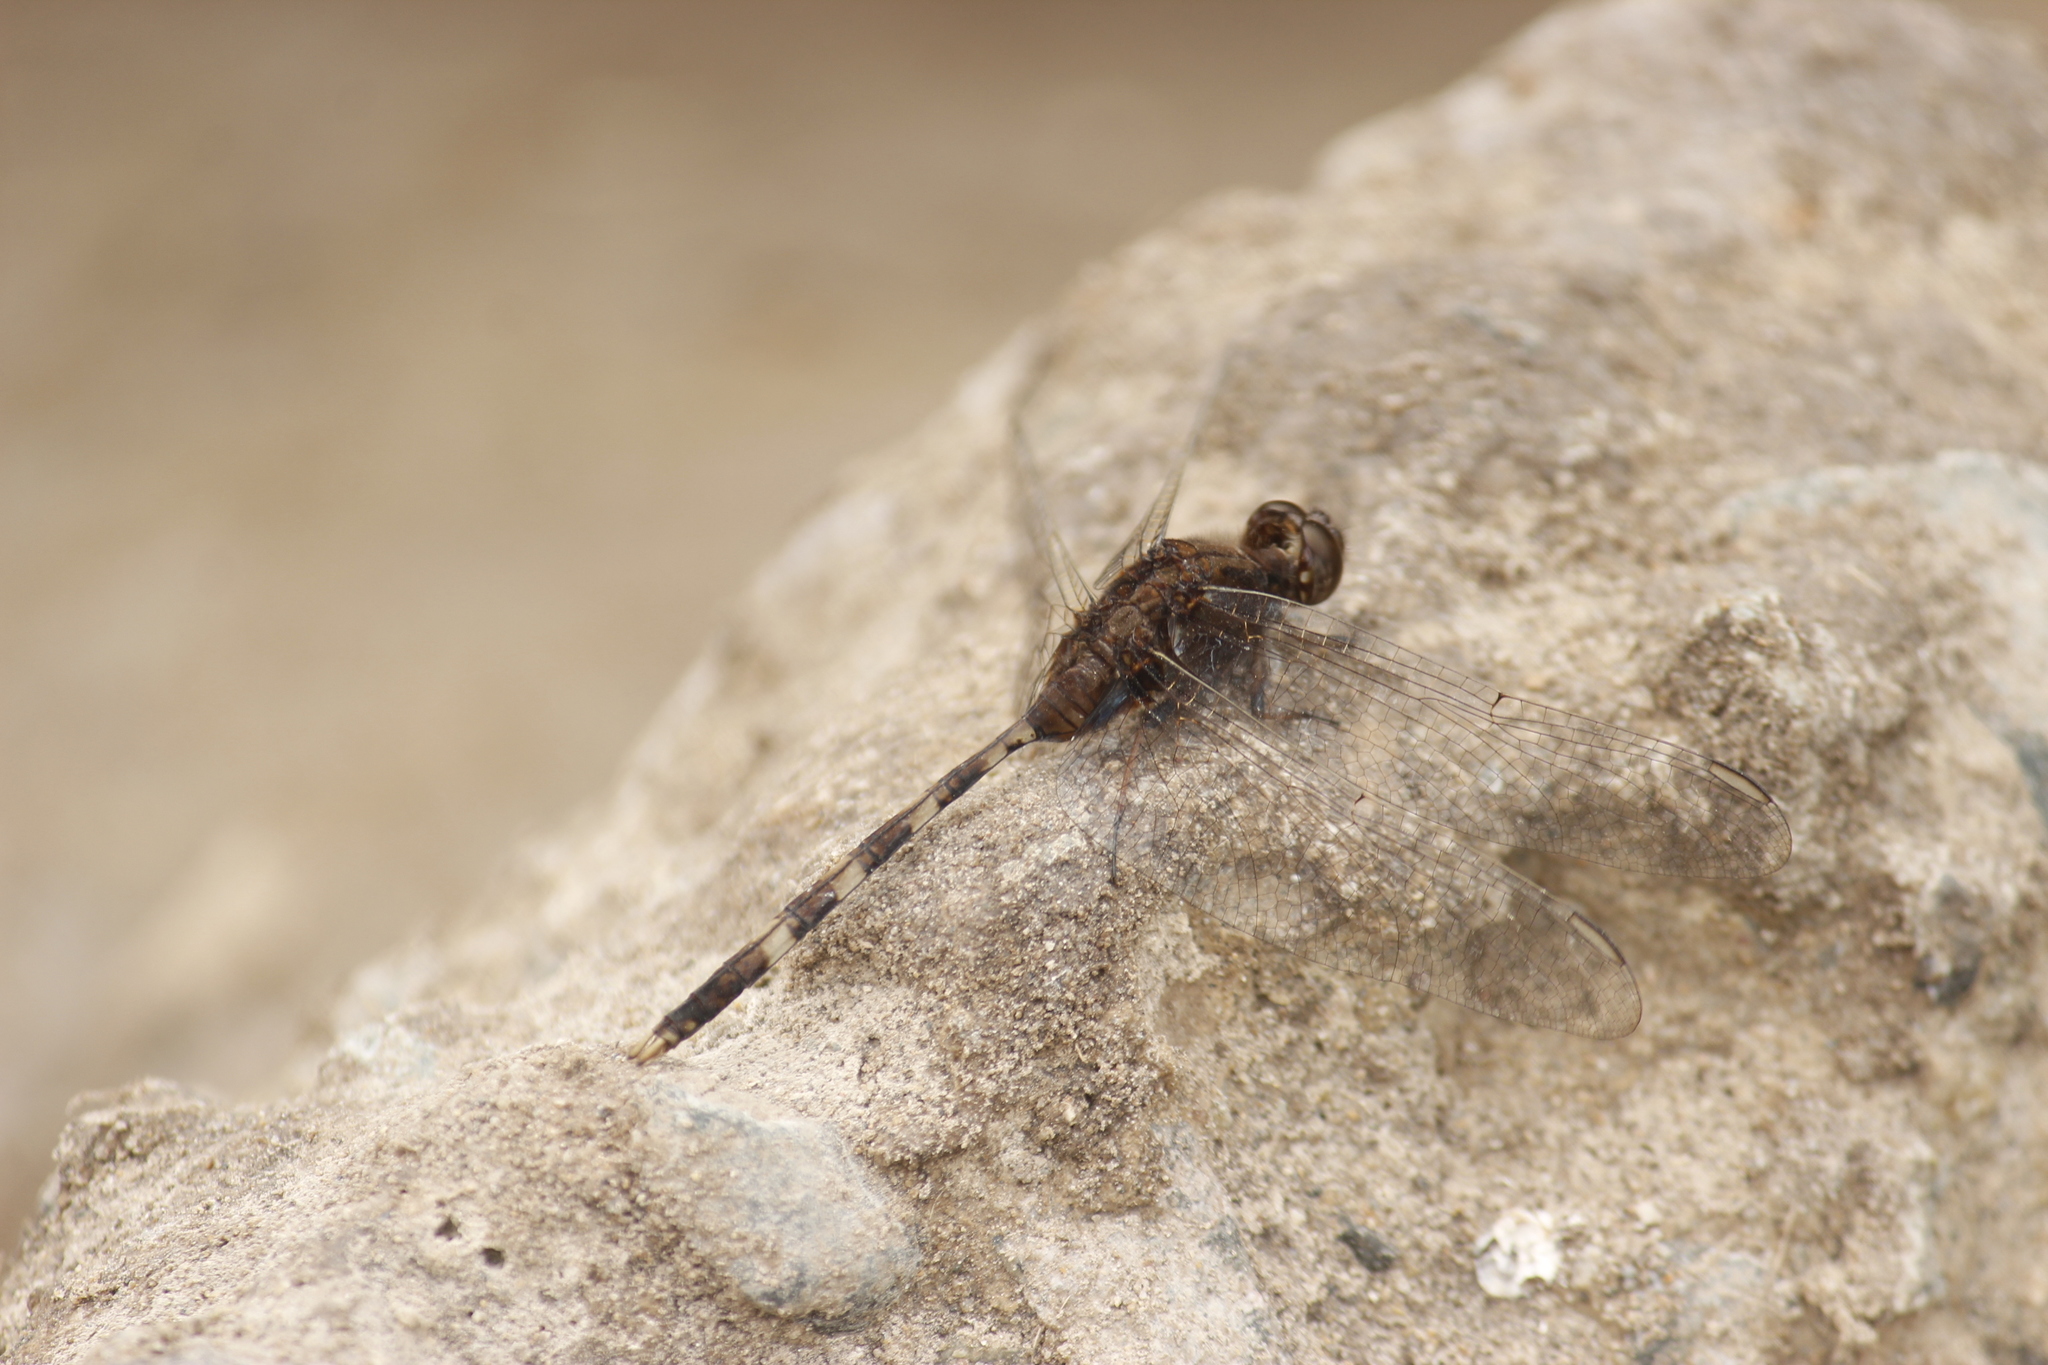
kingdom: Animalia
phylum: Arthropoda
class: Insecta
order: Odonata
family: Libellulidae
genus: Erythemis
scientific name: Erythemis plebeja
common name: Pin-tailed pondhawk
